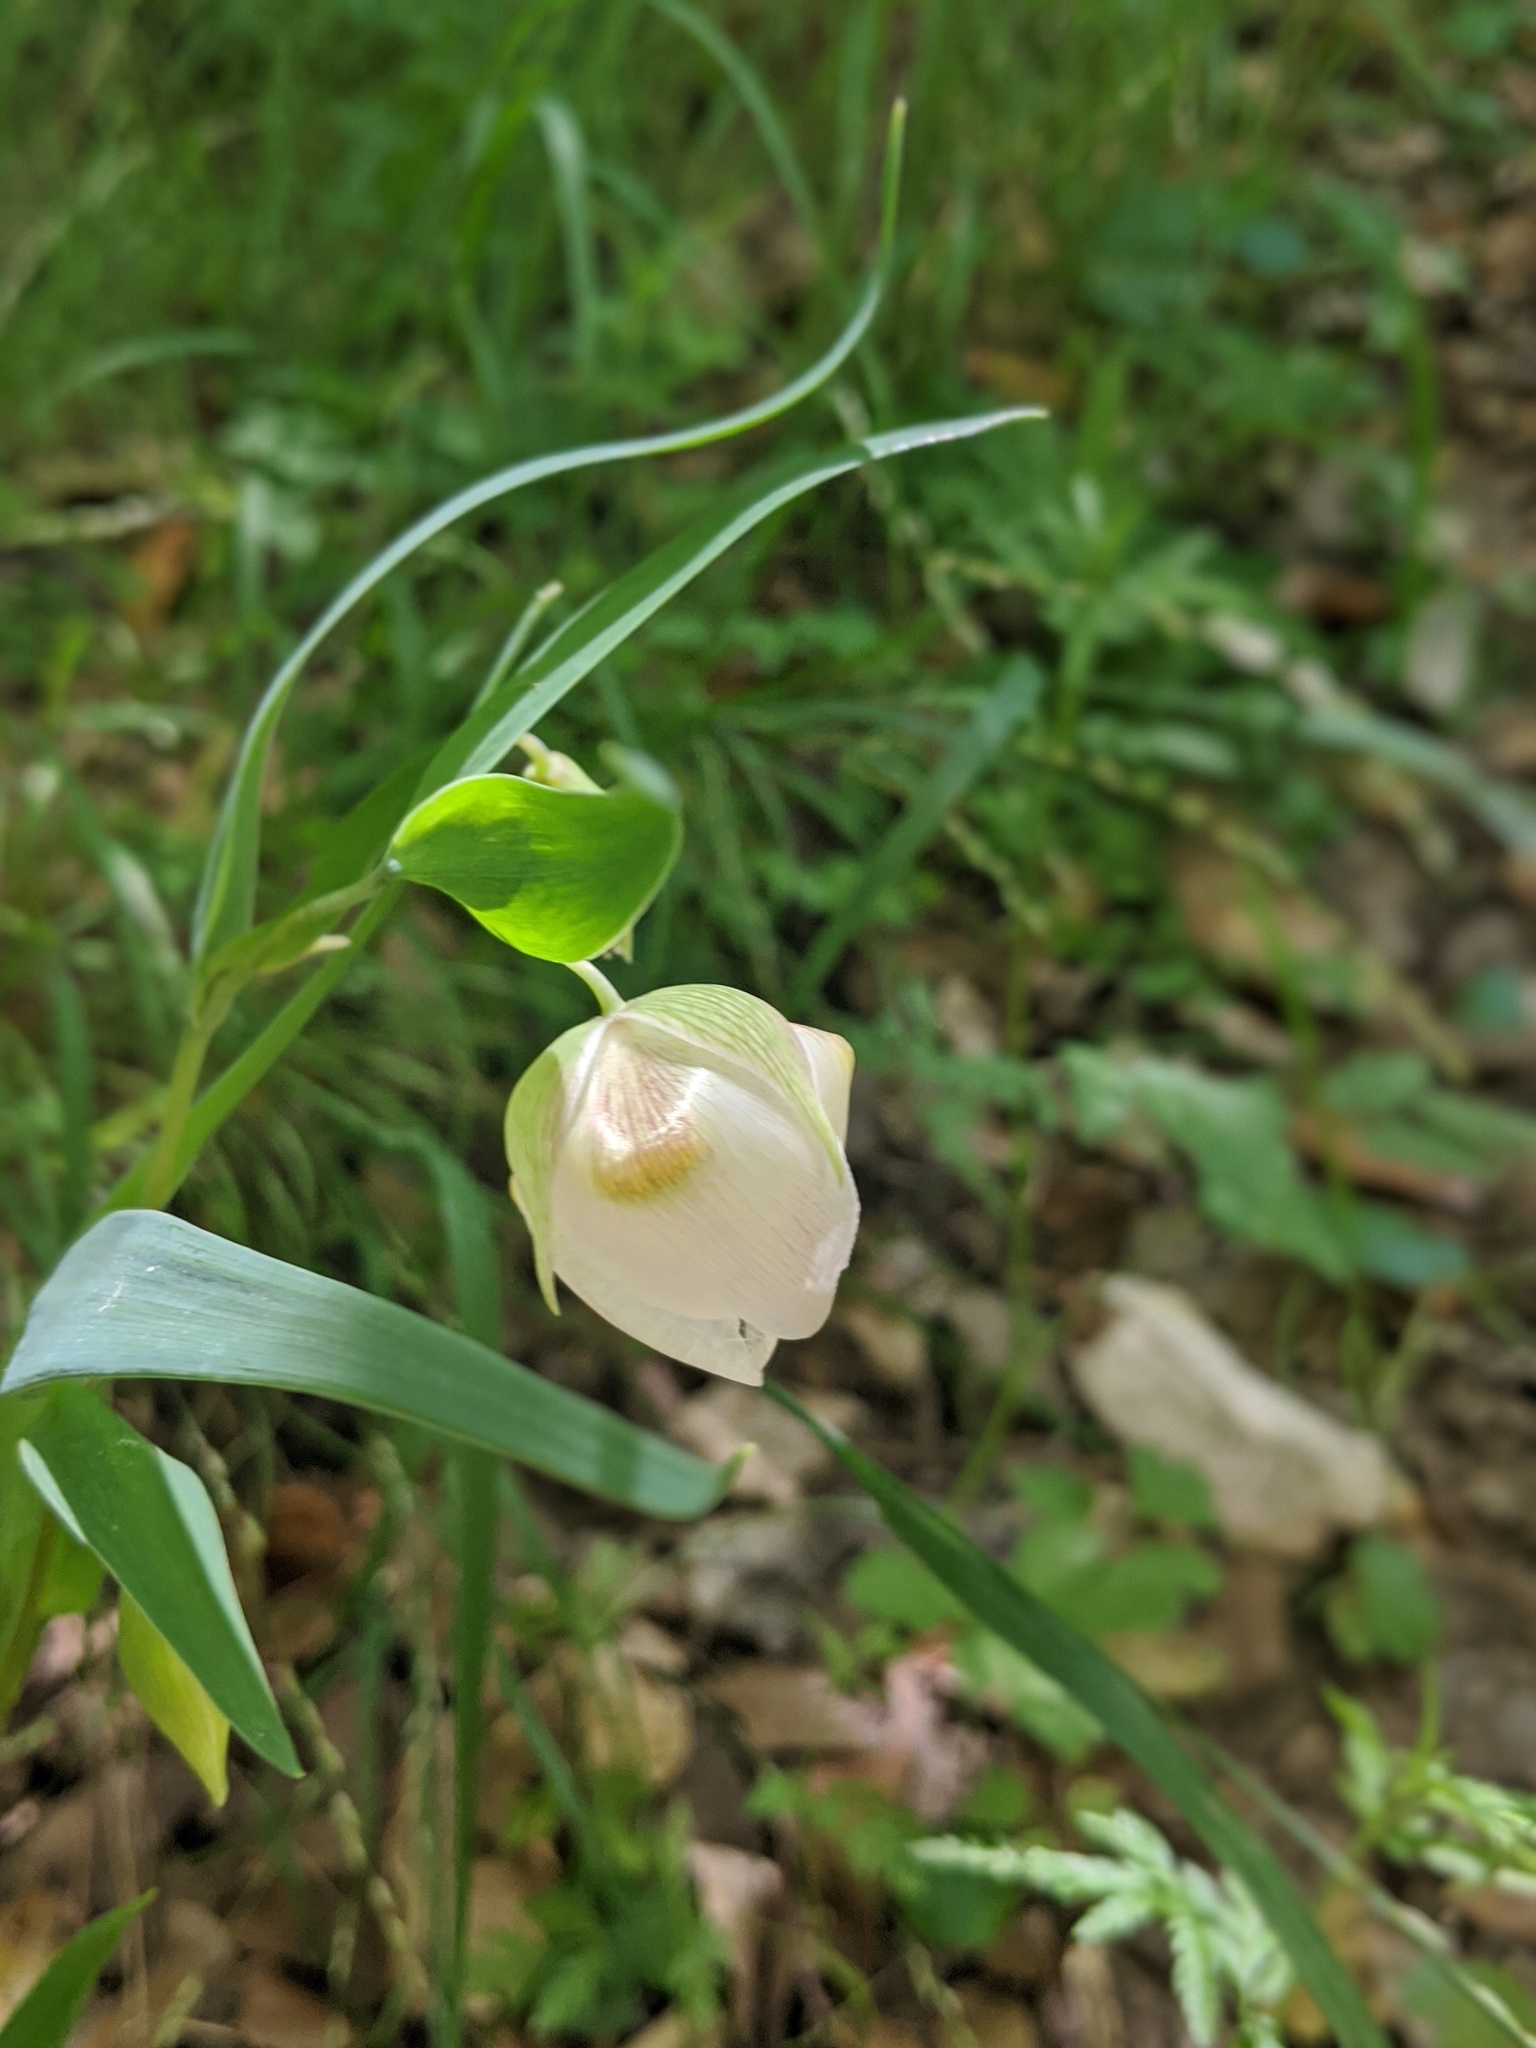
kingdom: Plantae
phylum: Tracheophyta
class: Liliopsida
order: Liliales
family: Liliaceae
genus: Calochortus
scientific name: Calochortus albus
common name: Fairy-lantern
